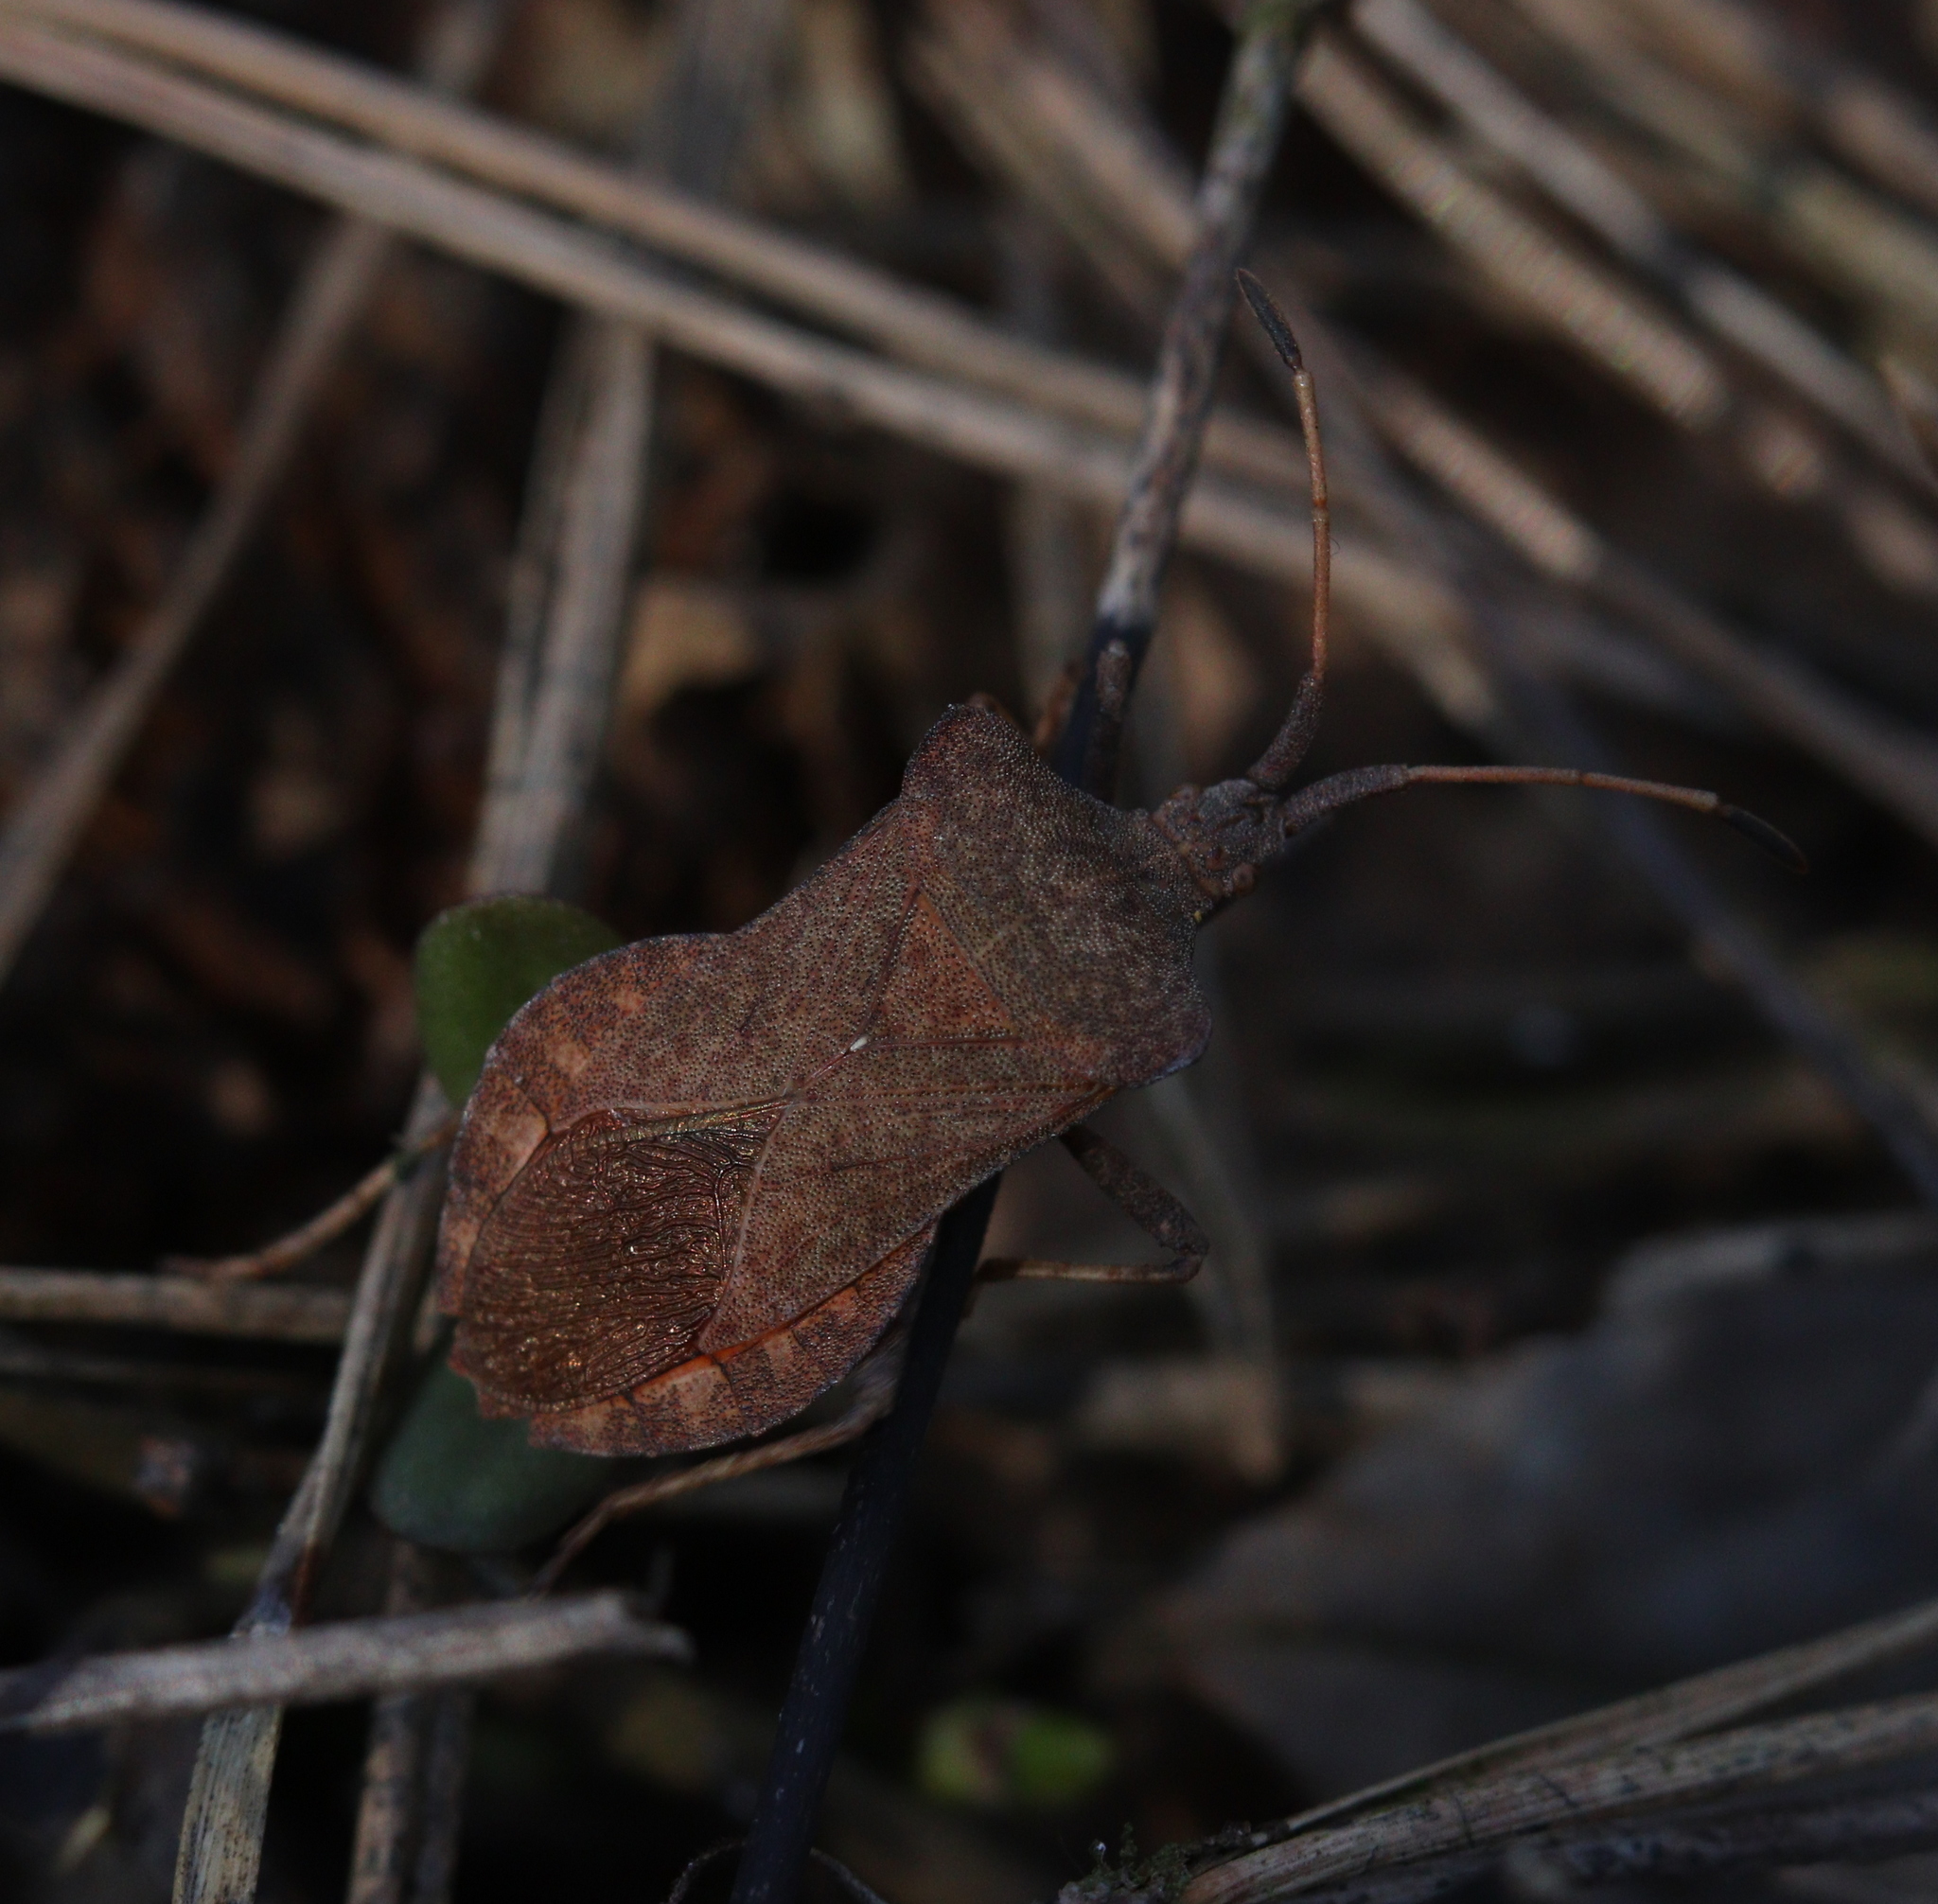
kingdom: Animalia
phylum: Arthropoda
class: Insecta
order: Hemiptera
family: Coreidae
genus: Coreus
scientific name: Coreus marginatus
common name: Dock bug
